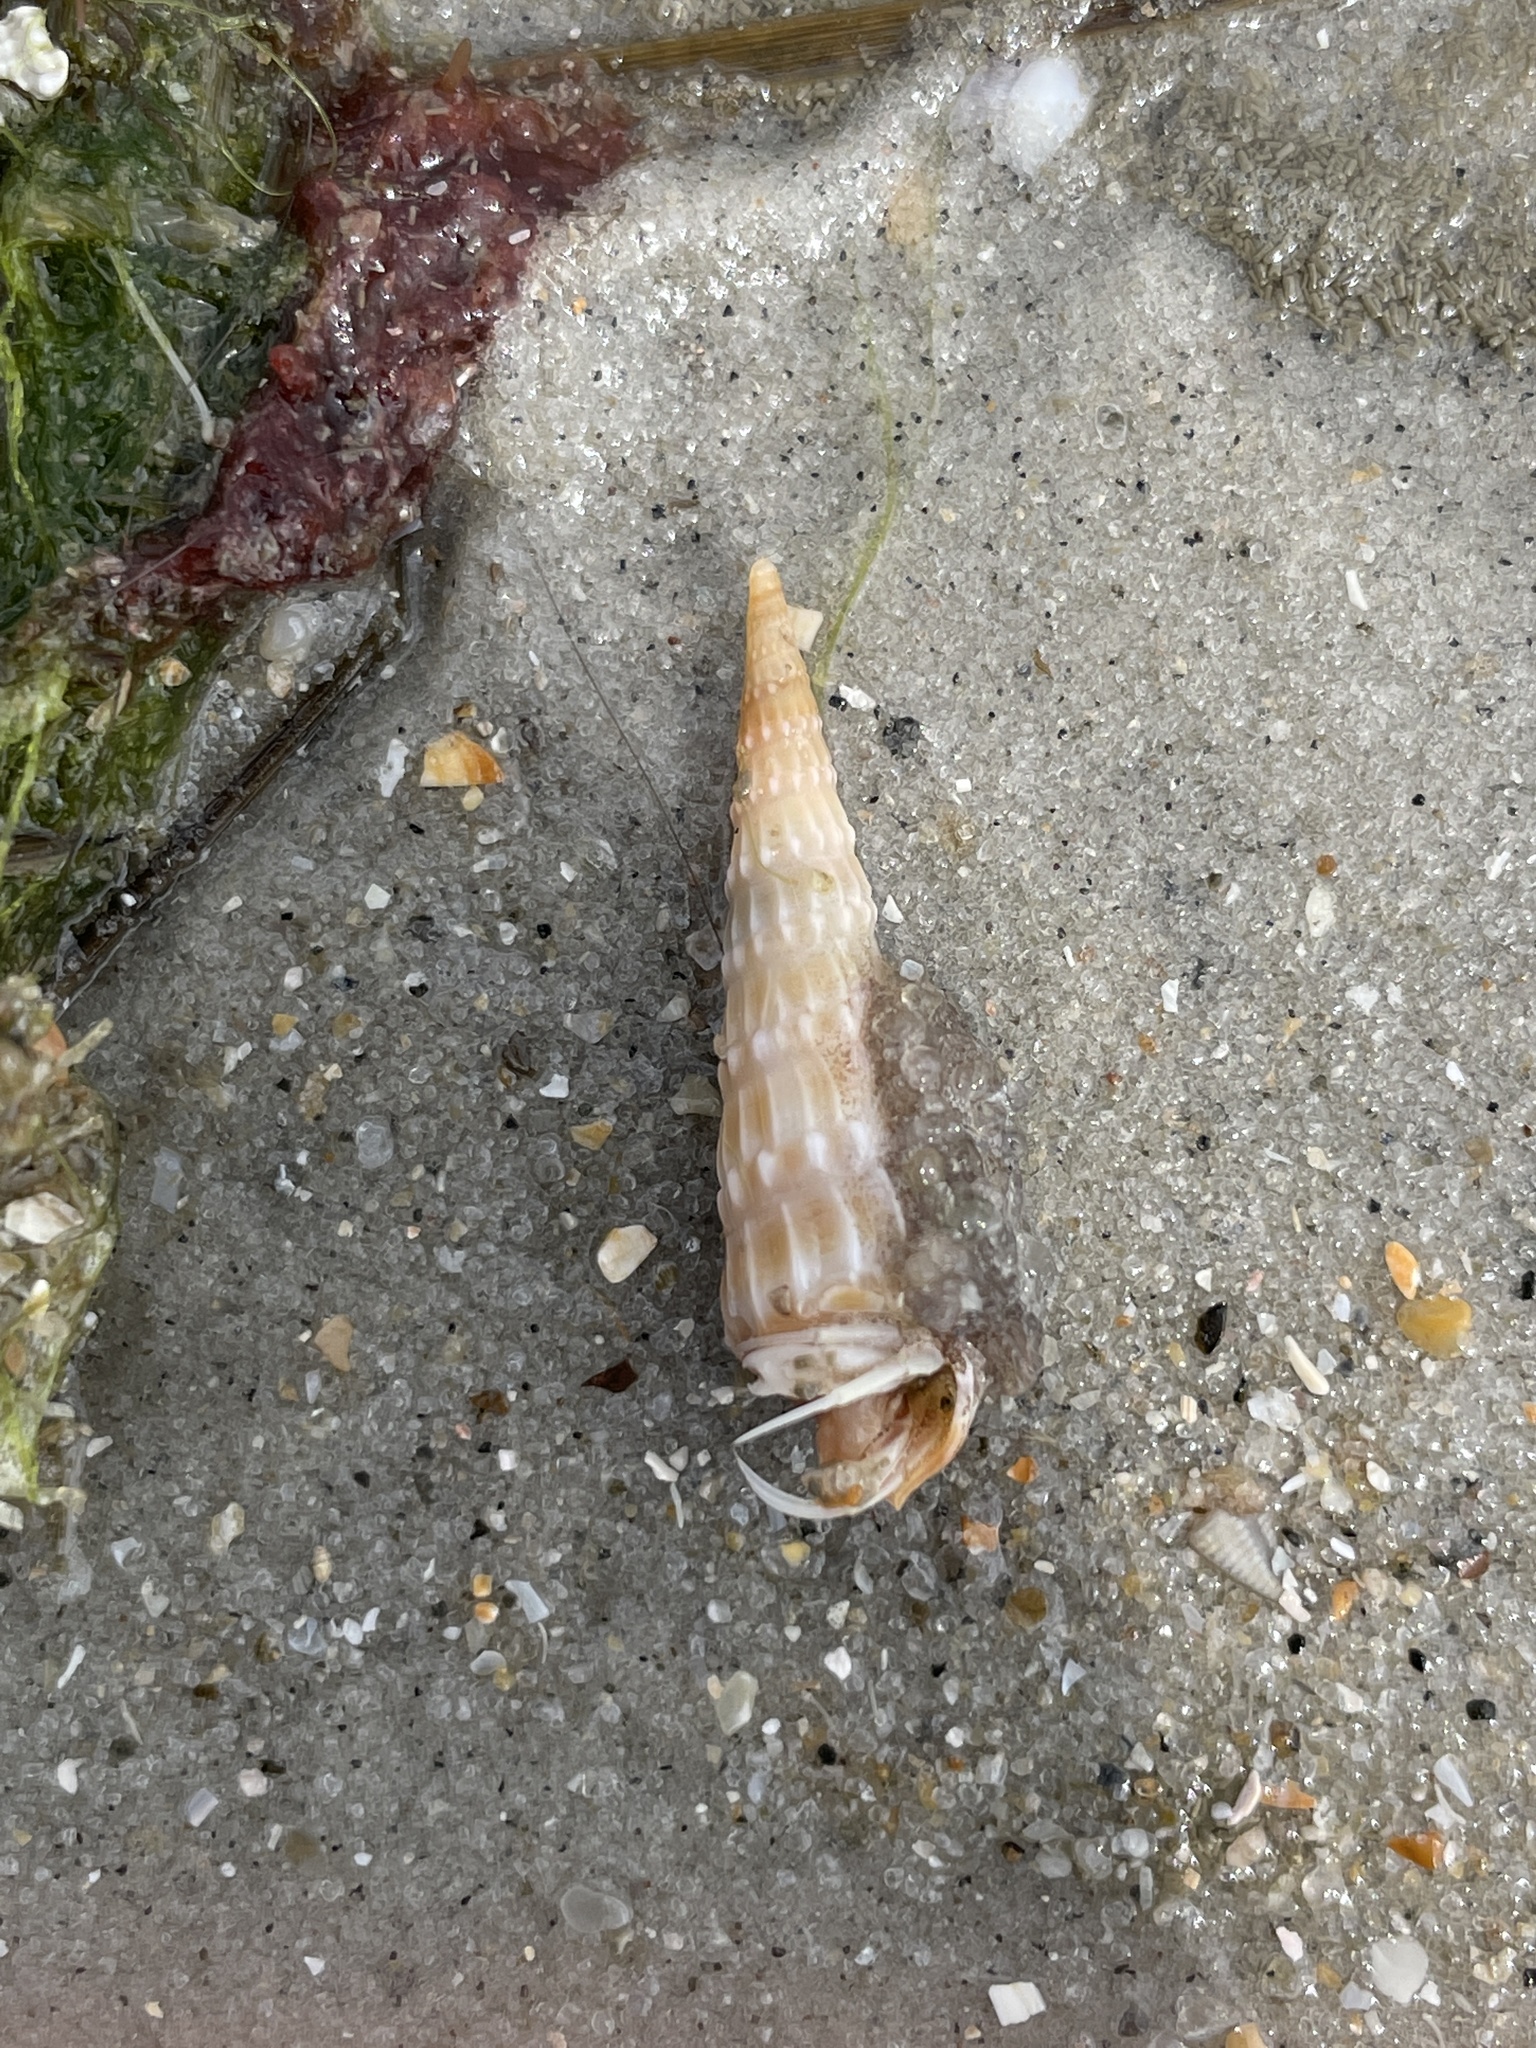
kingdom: Animalia
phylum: Mollusca
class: Gastropoda
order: Neogastropoda
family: Terebridae
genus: Neoterebra
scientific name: Neoterebra dislocata
